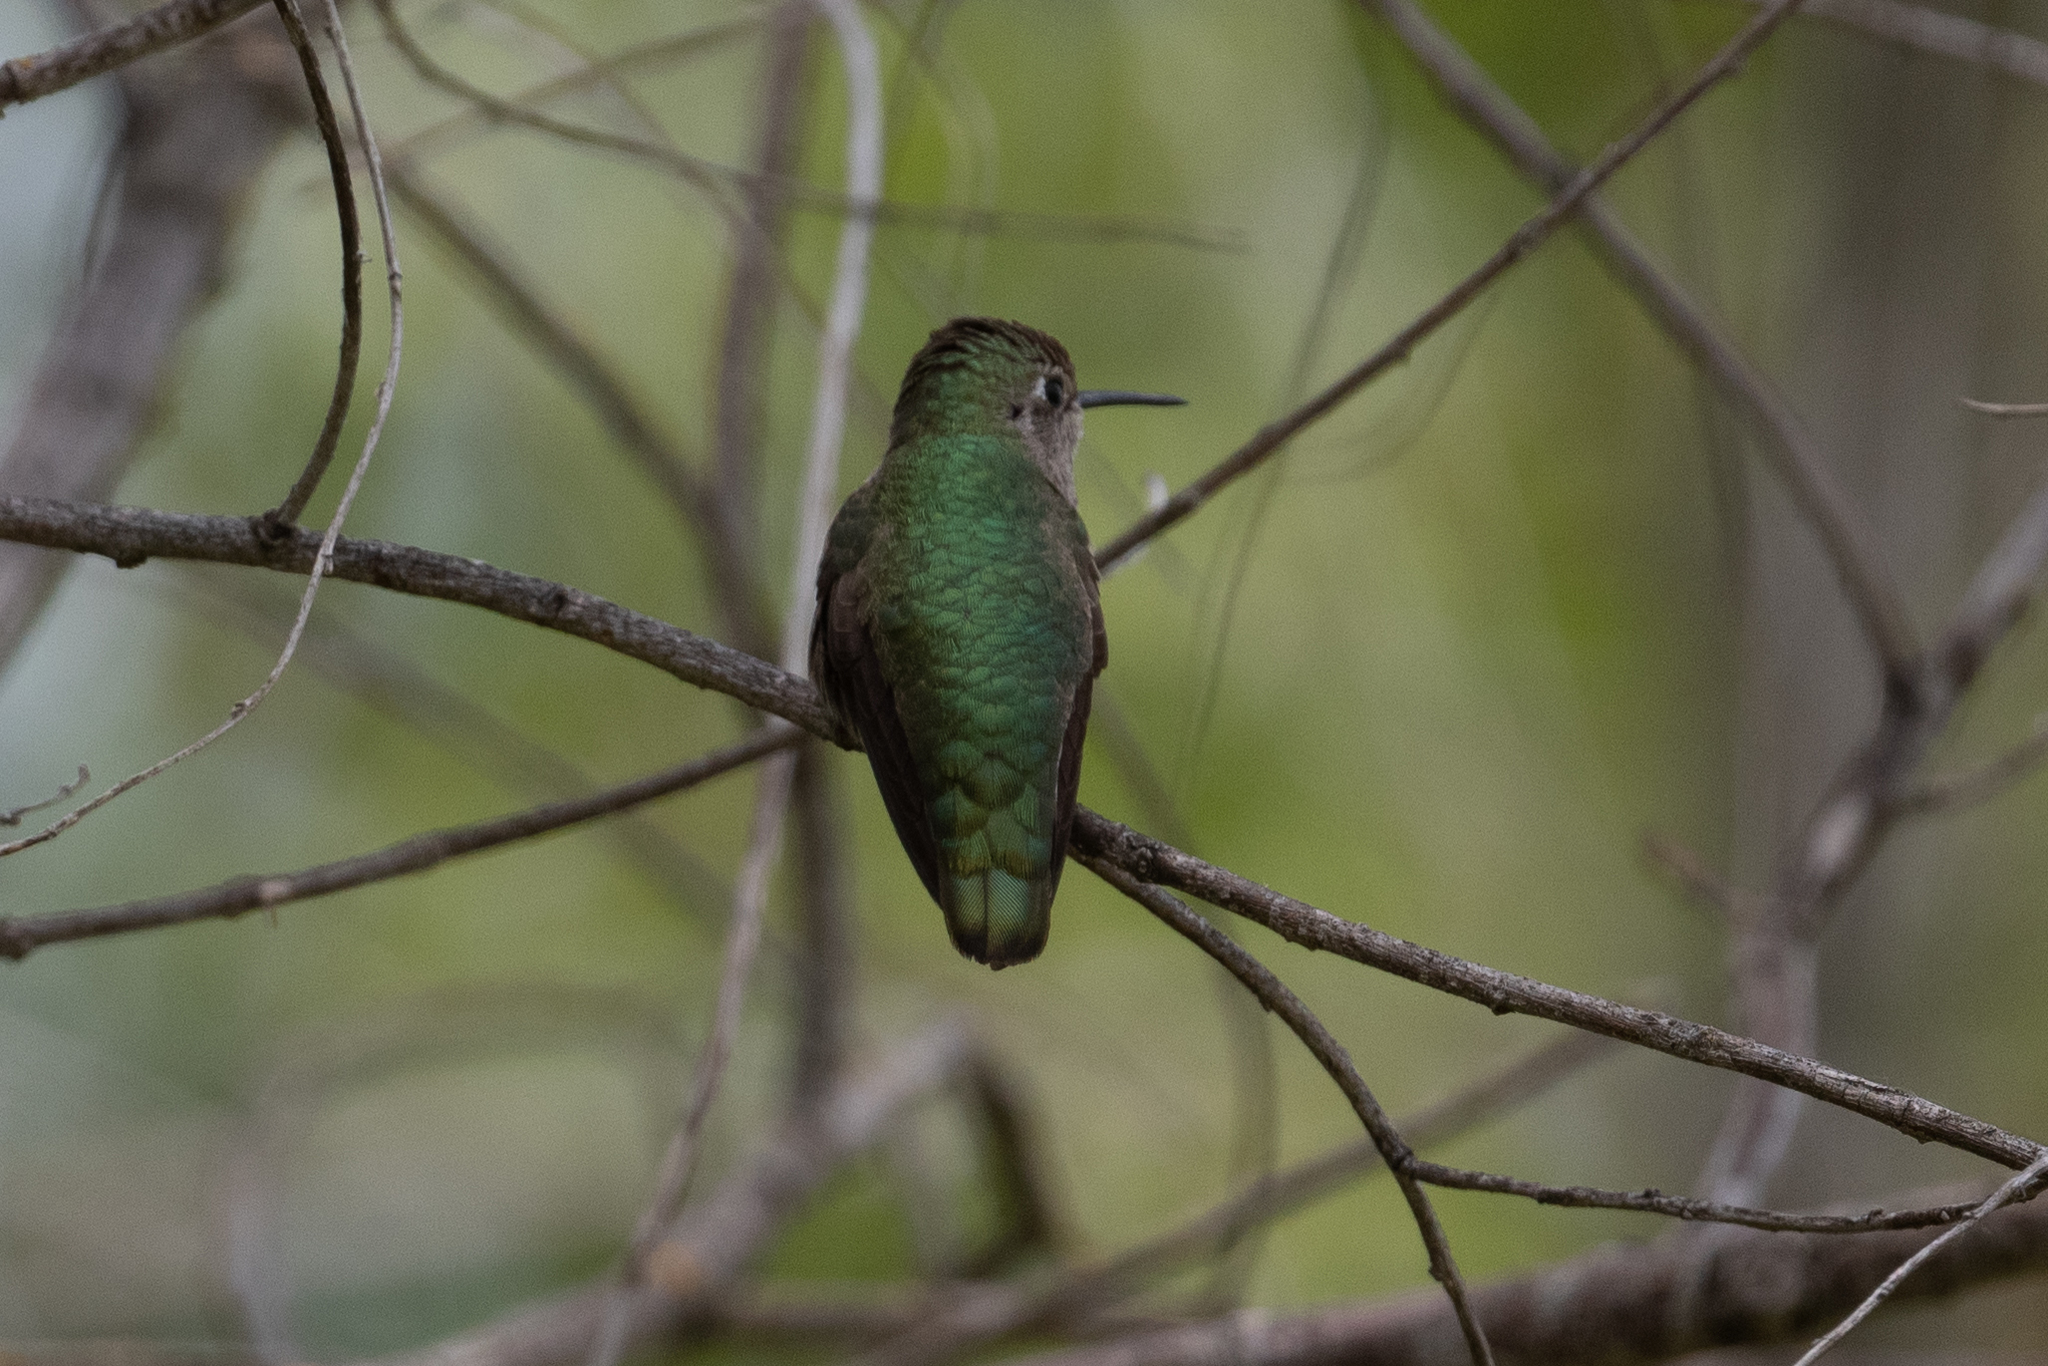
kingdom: Animalia
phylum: Chordata
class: Aves
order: Apodiformes
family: Trochilidae
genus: Calypte
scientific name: Calypte anna
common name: Anna's hummingbird
